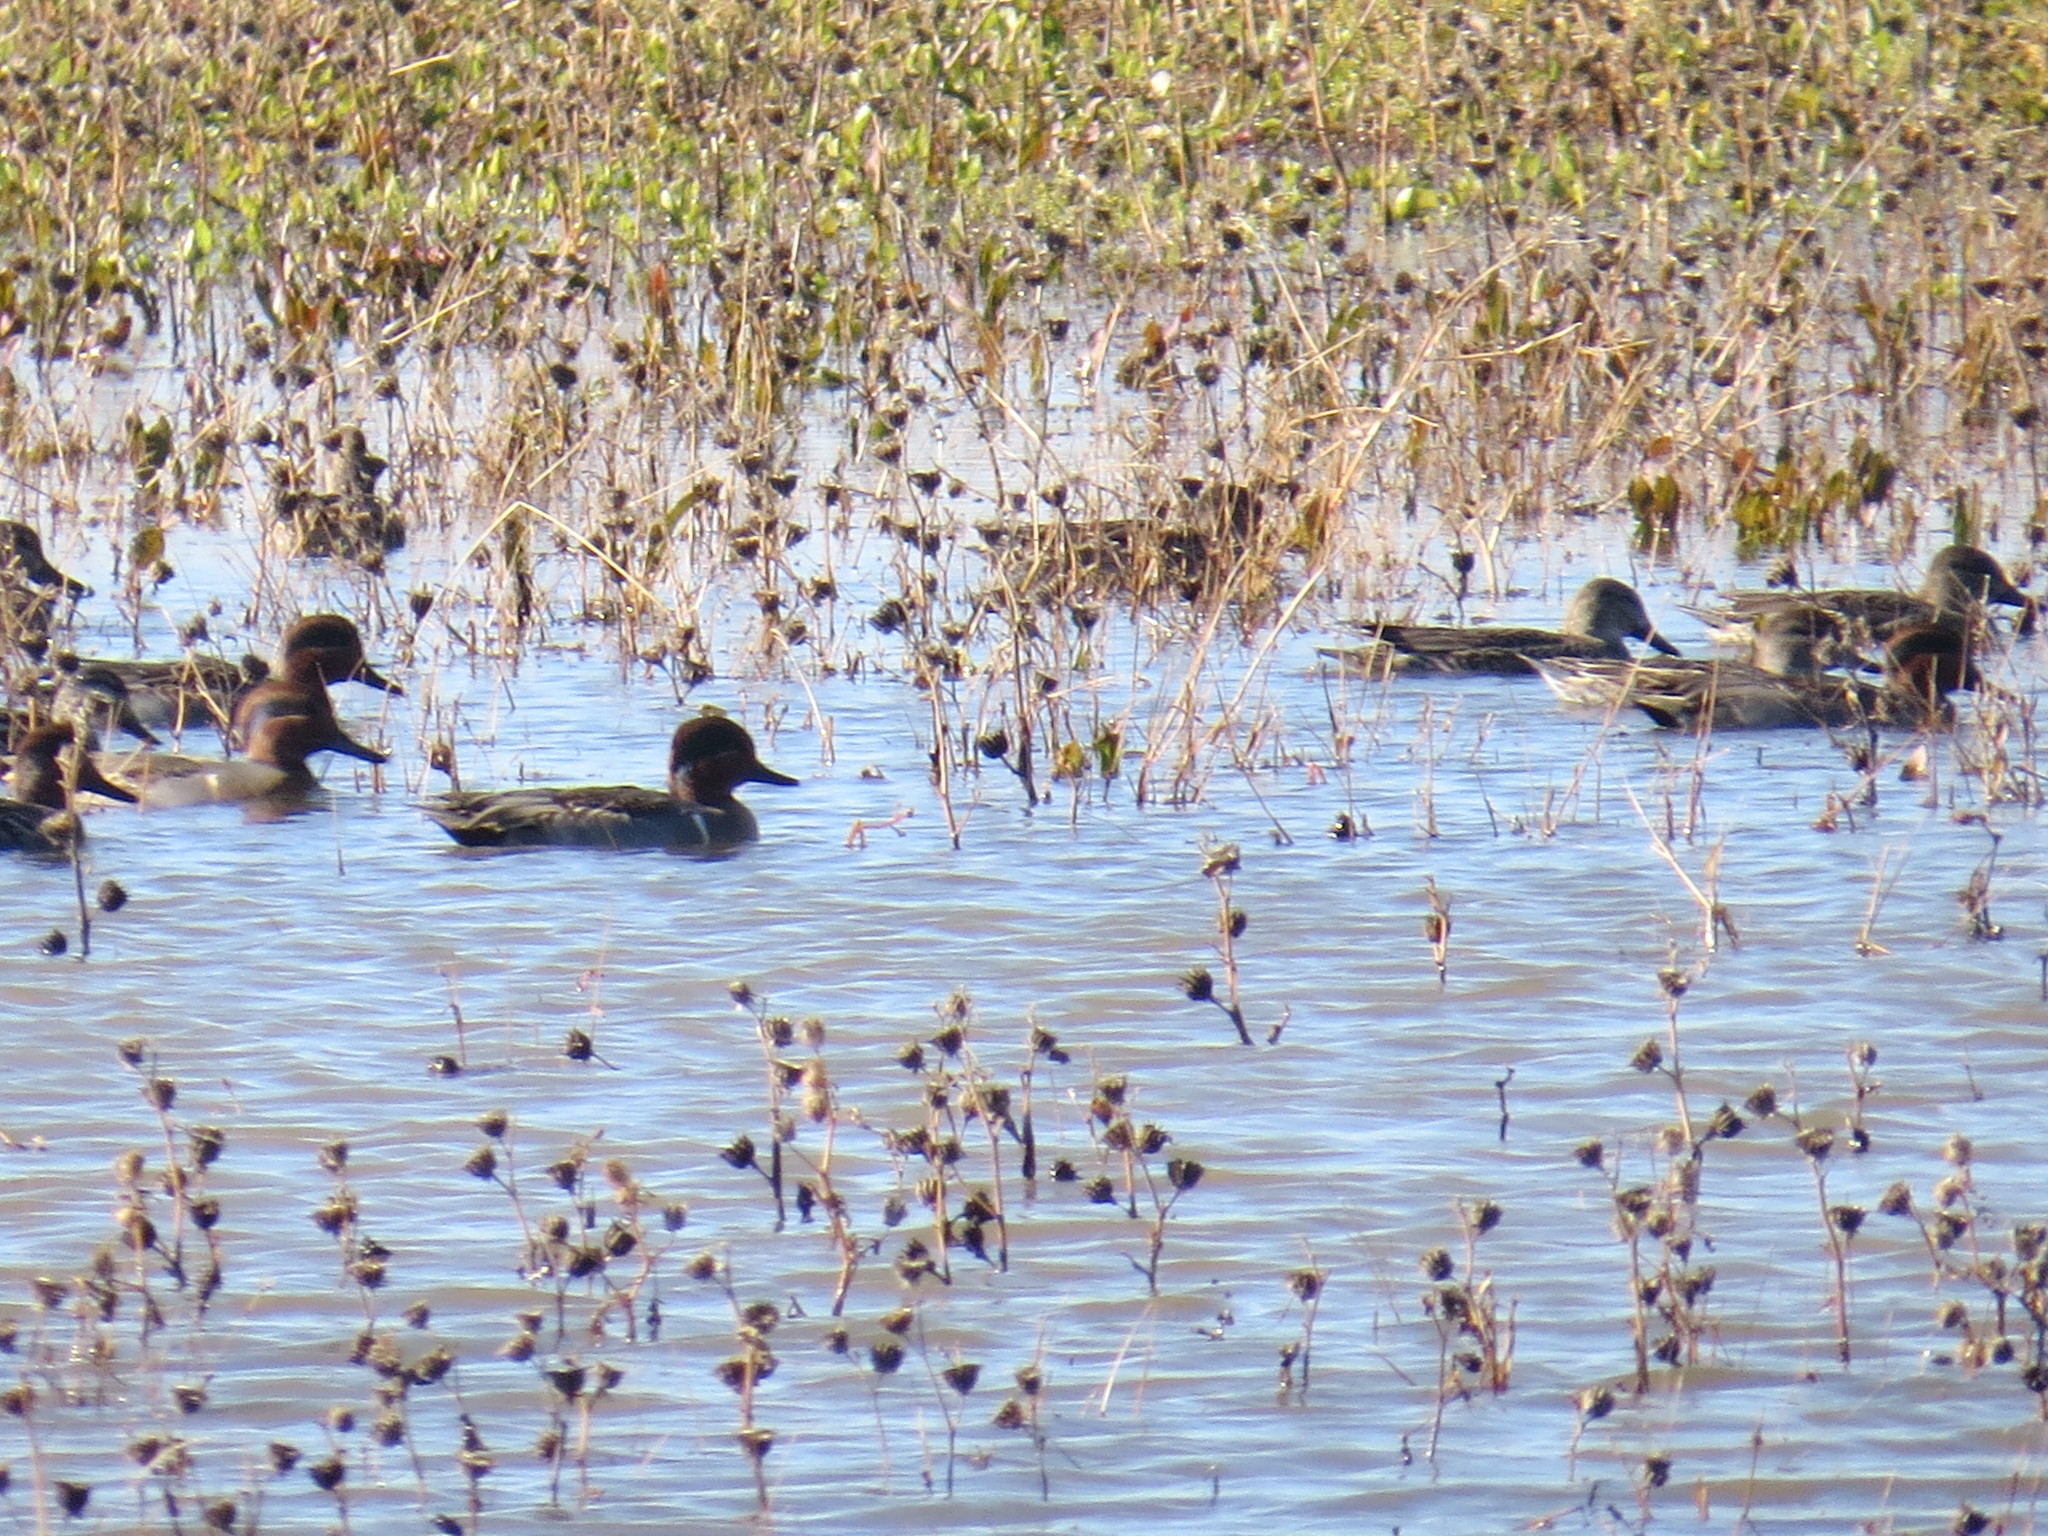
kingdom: Animalia
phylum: Chordata
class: Aves
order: Anseriformes
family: Anatidae
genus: Anas
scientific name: Anas crecca
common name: Eurasian teal
